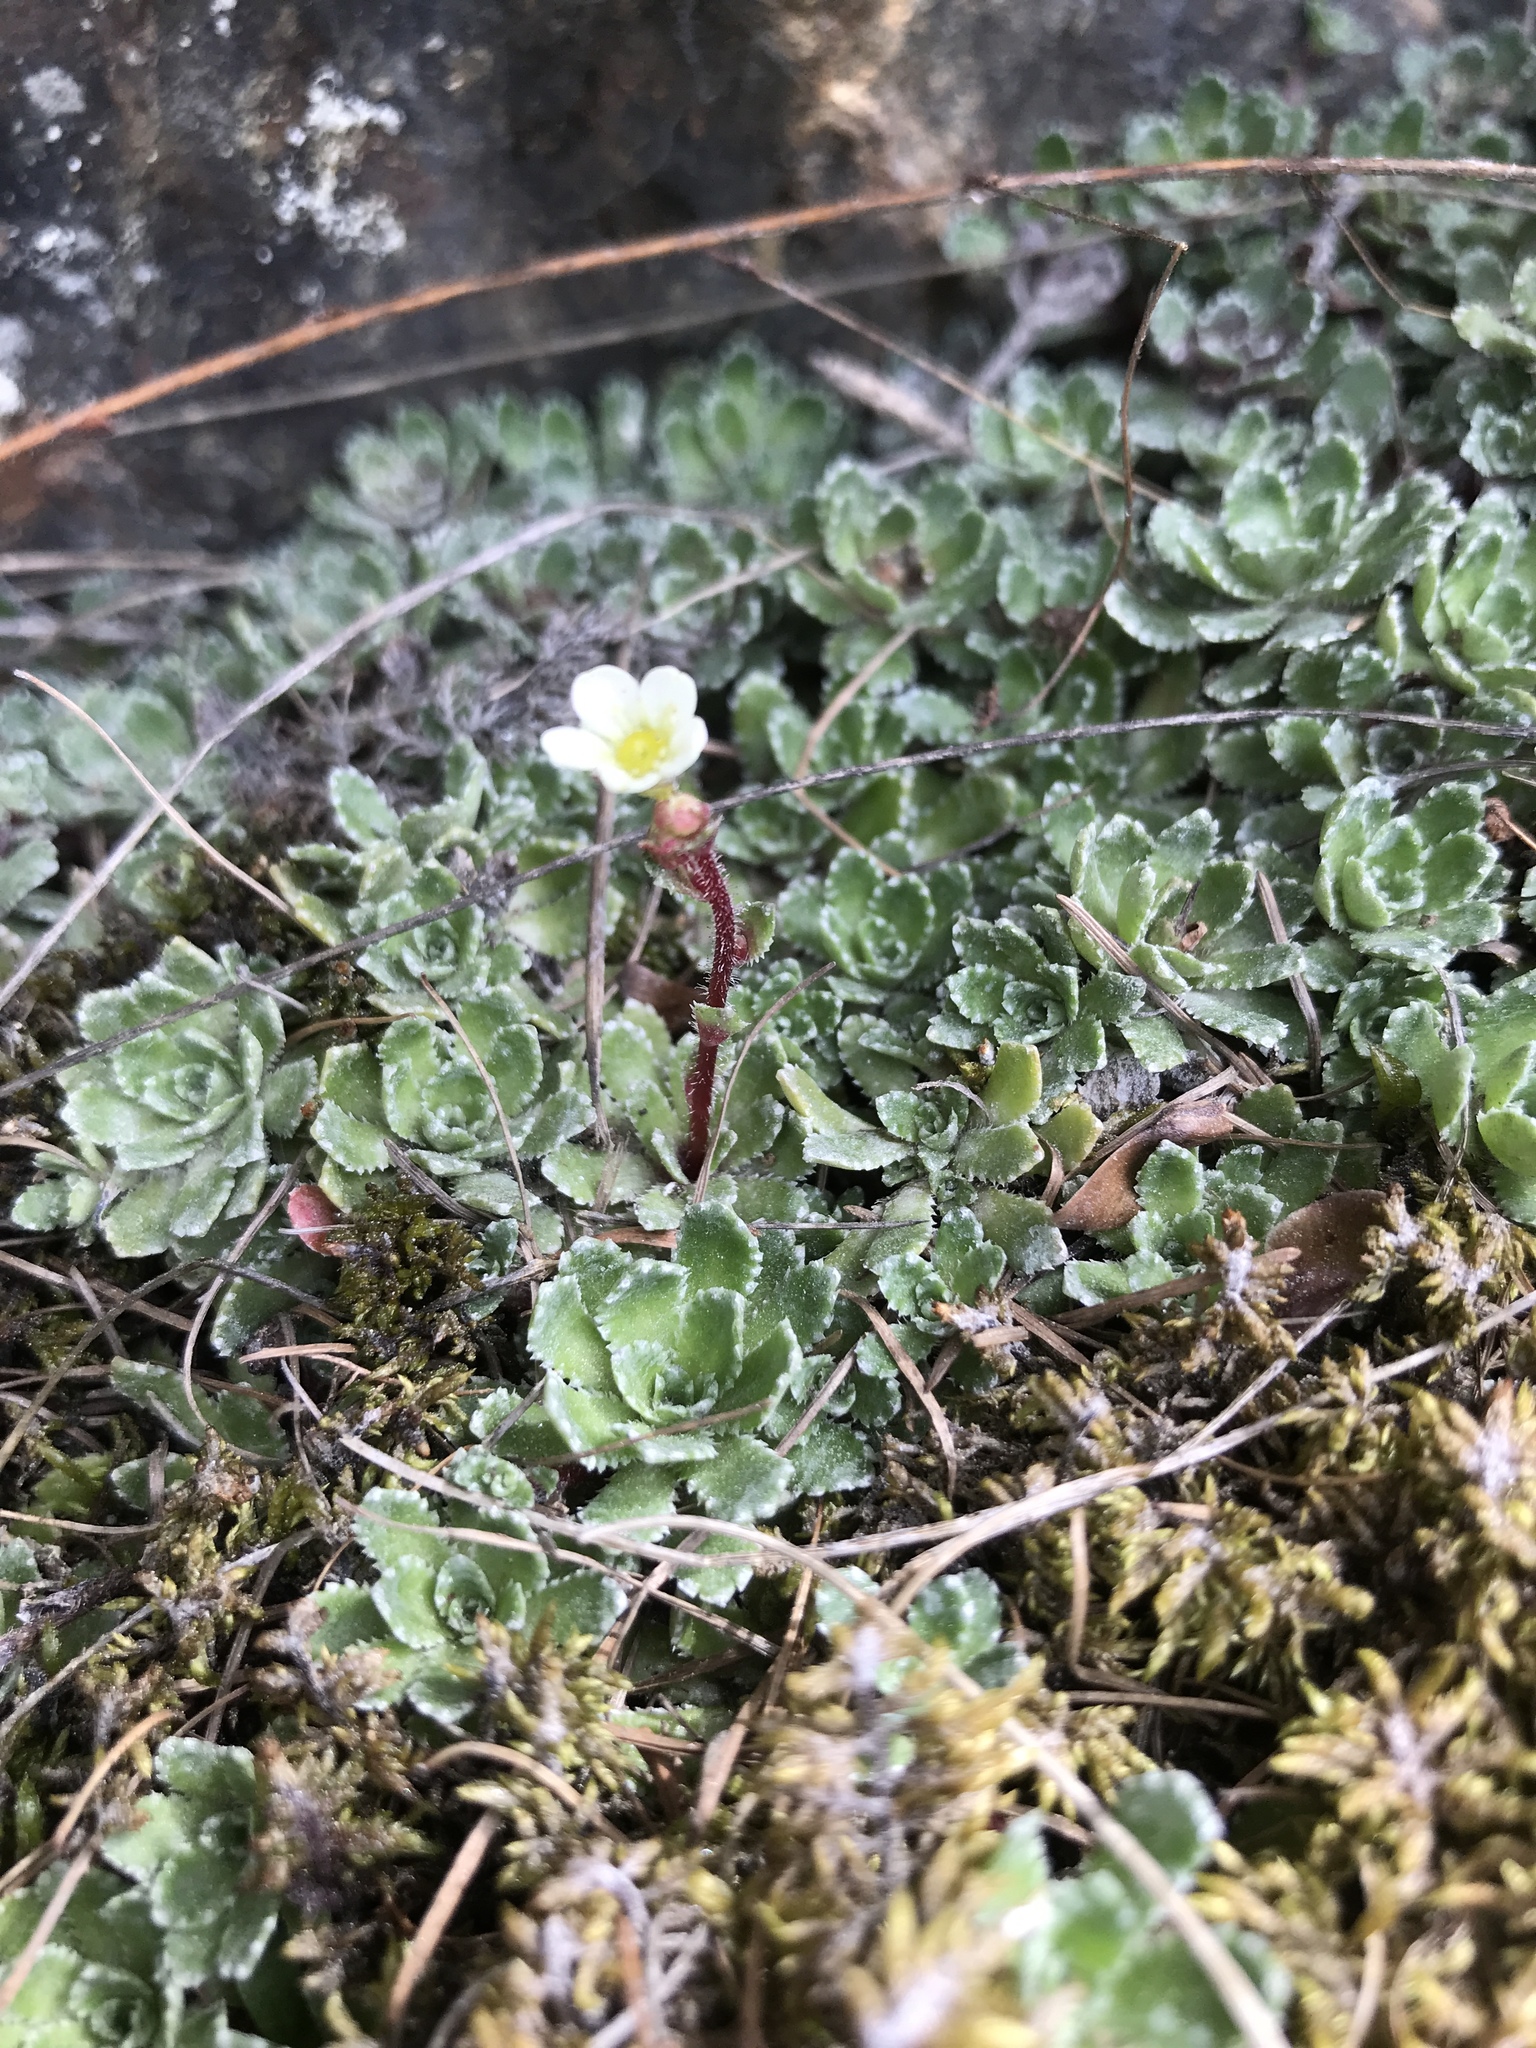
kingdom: Plantae
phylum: Tracheophyta
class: Magnoliopsida
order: Saxifragales
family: Saxifragaceae
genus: Saxifraga
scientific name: Saxifraga paniculata
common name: Livelong saxifrage
